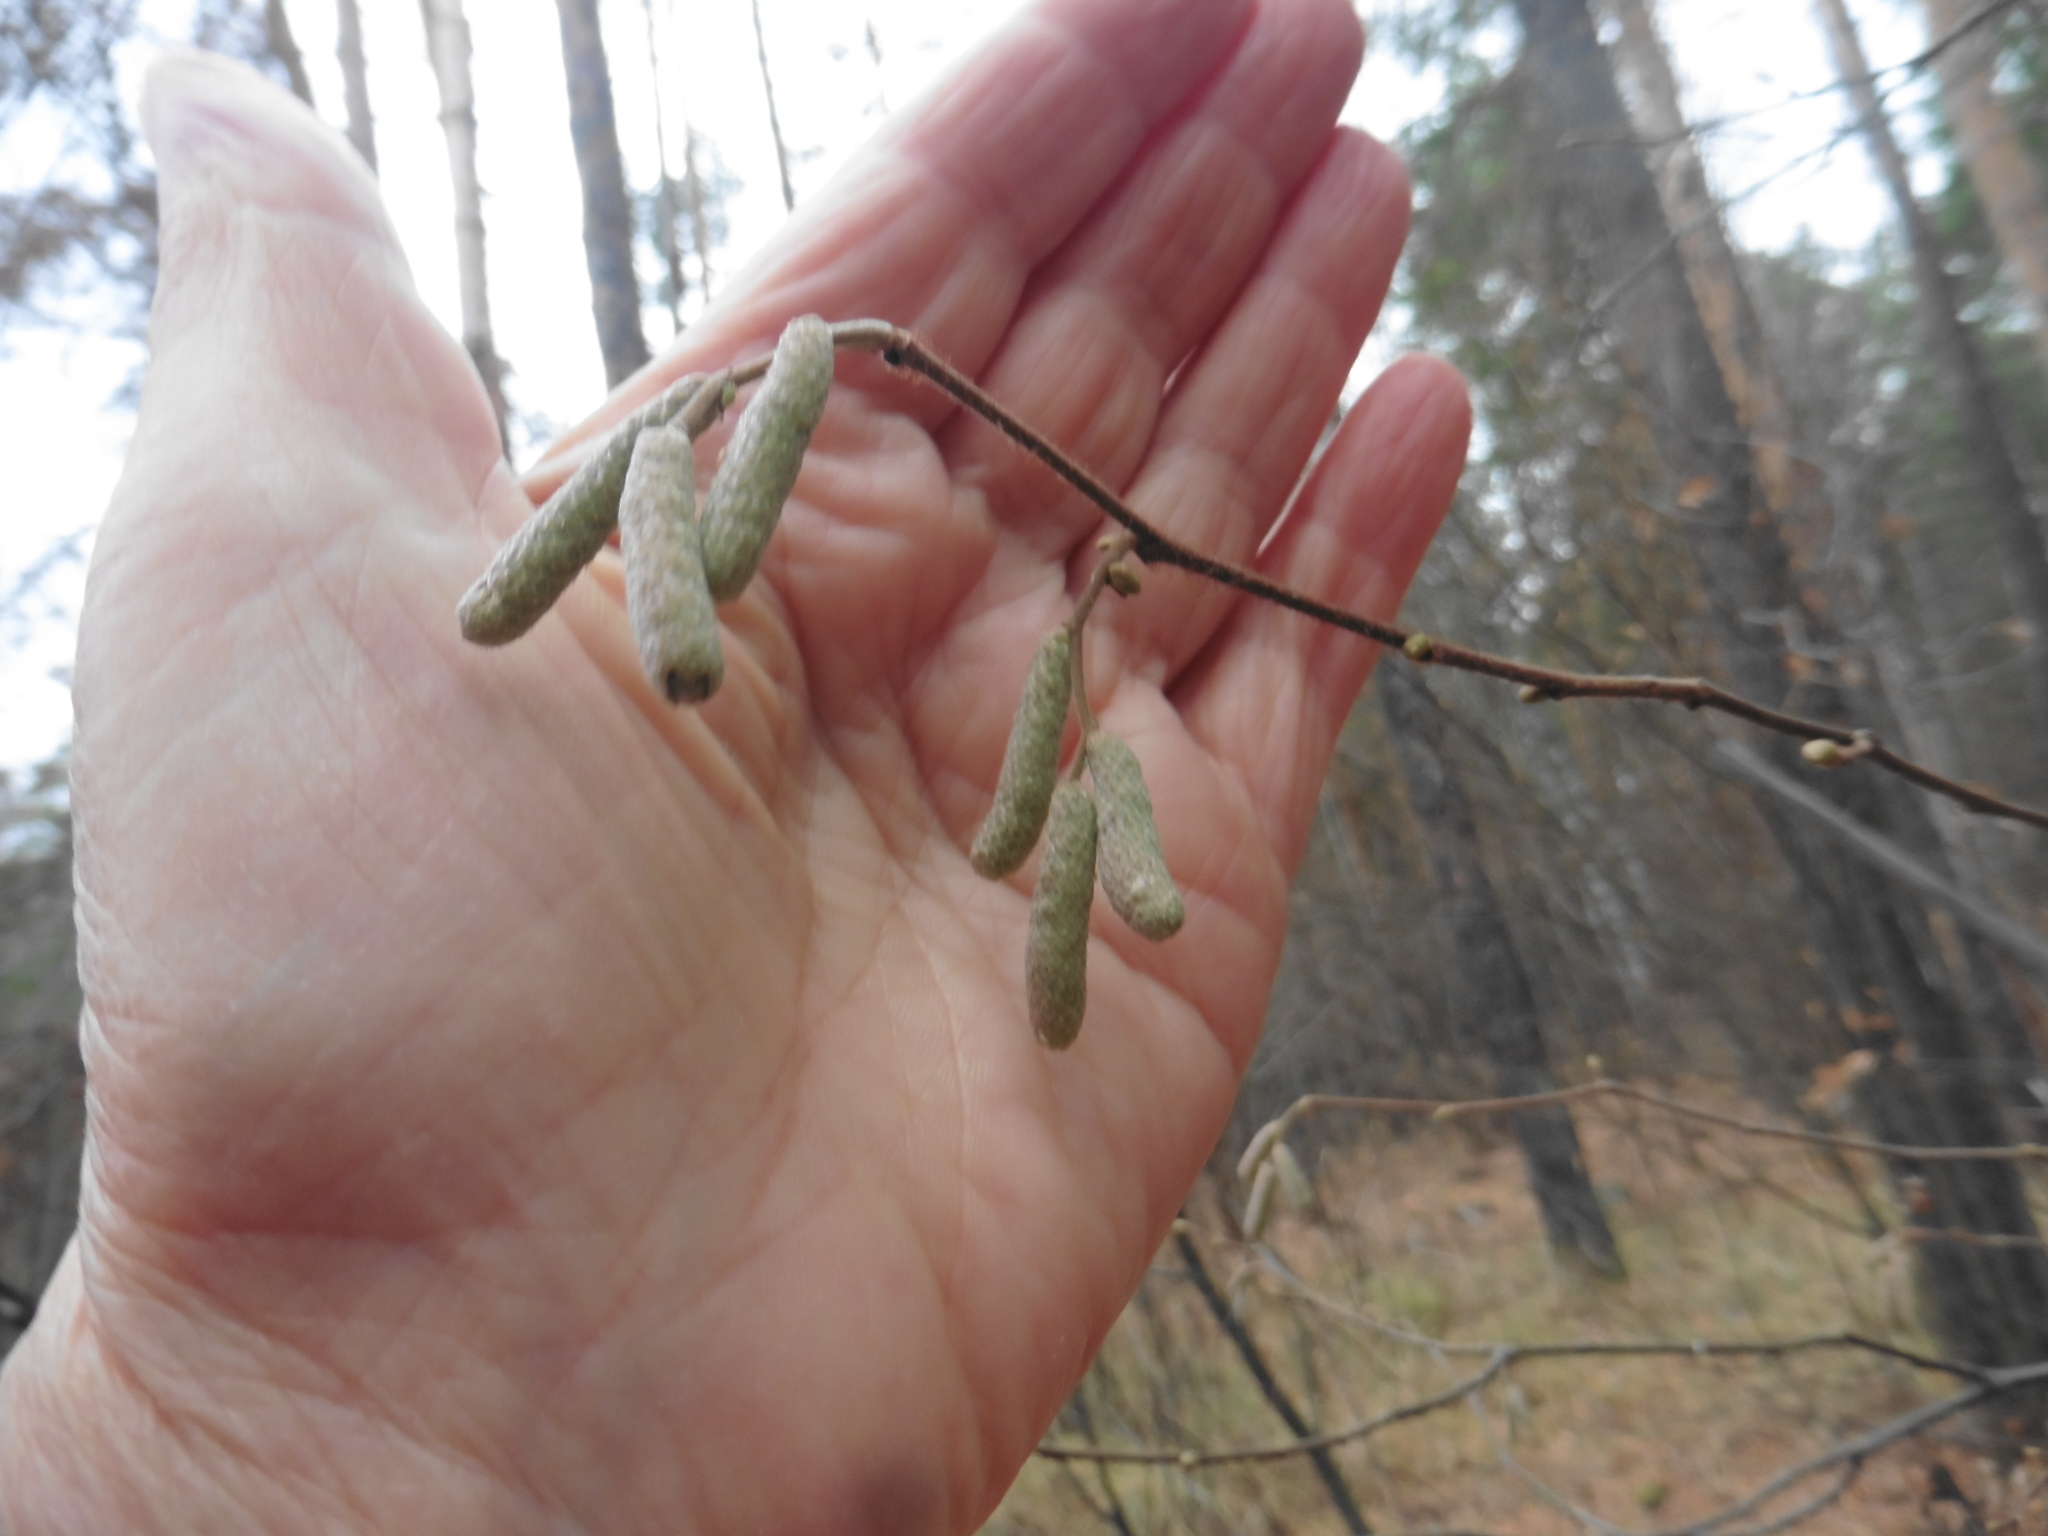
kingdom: Plantae
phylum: Tracheophyta
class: Magnoliopsida
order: Fagales
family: Betulaceae
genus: Corylus
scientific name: Corylus avellana
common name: European hazel
